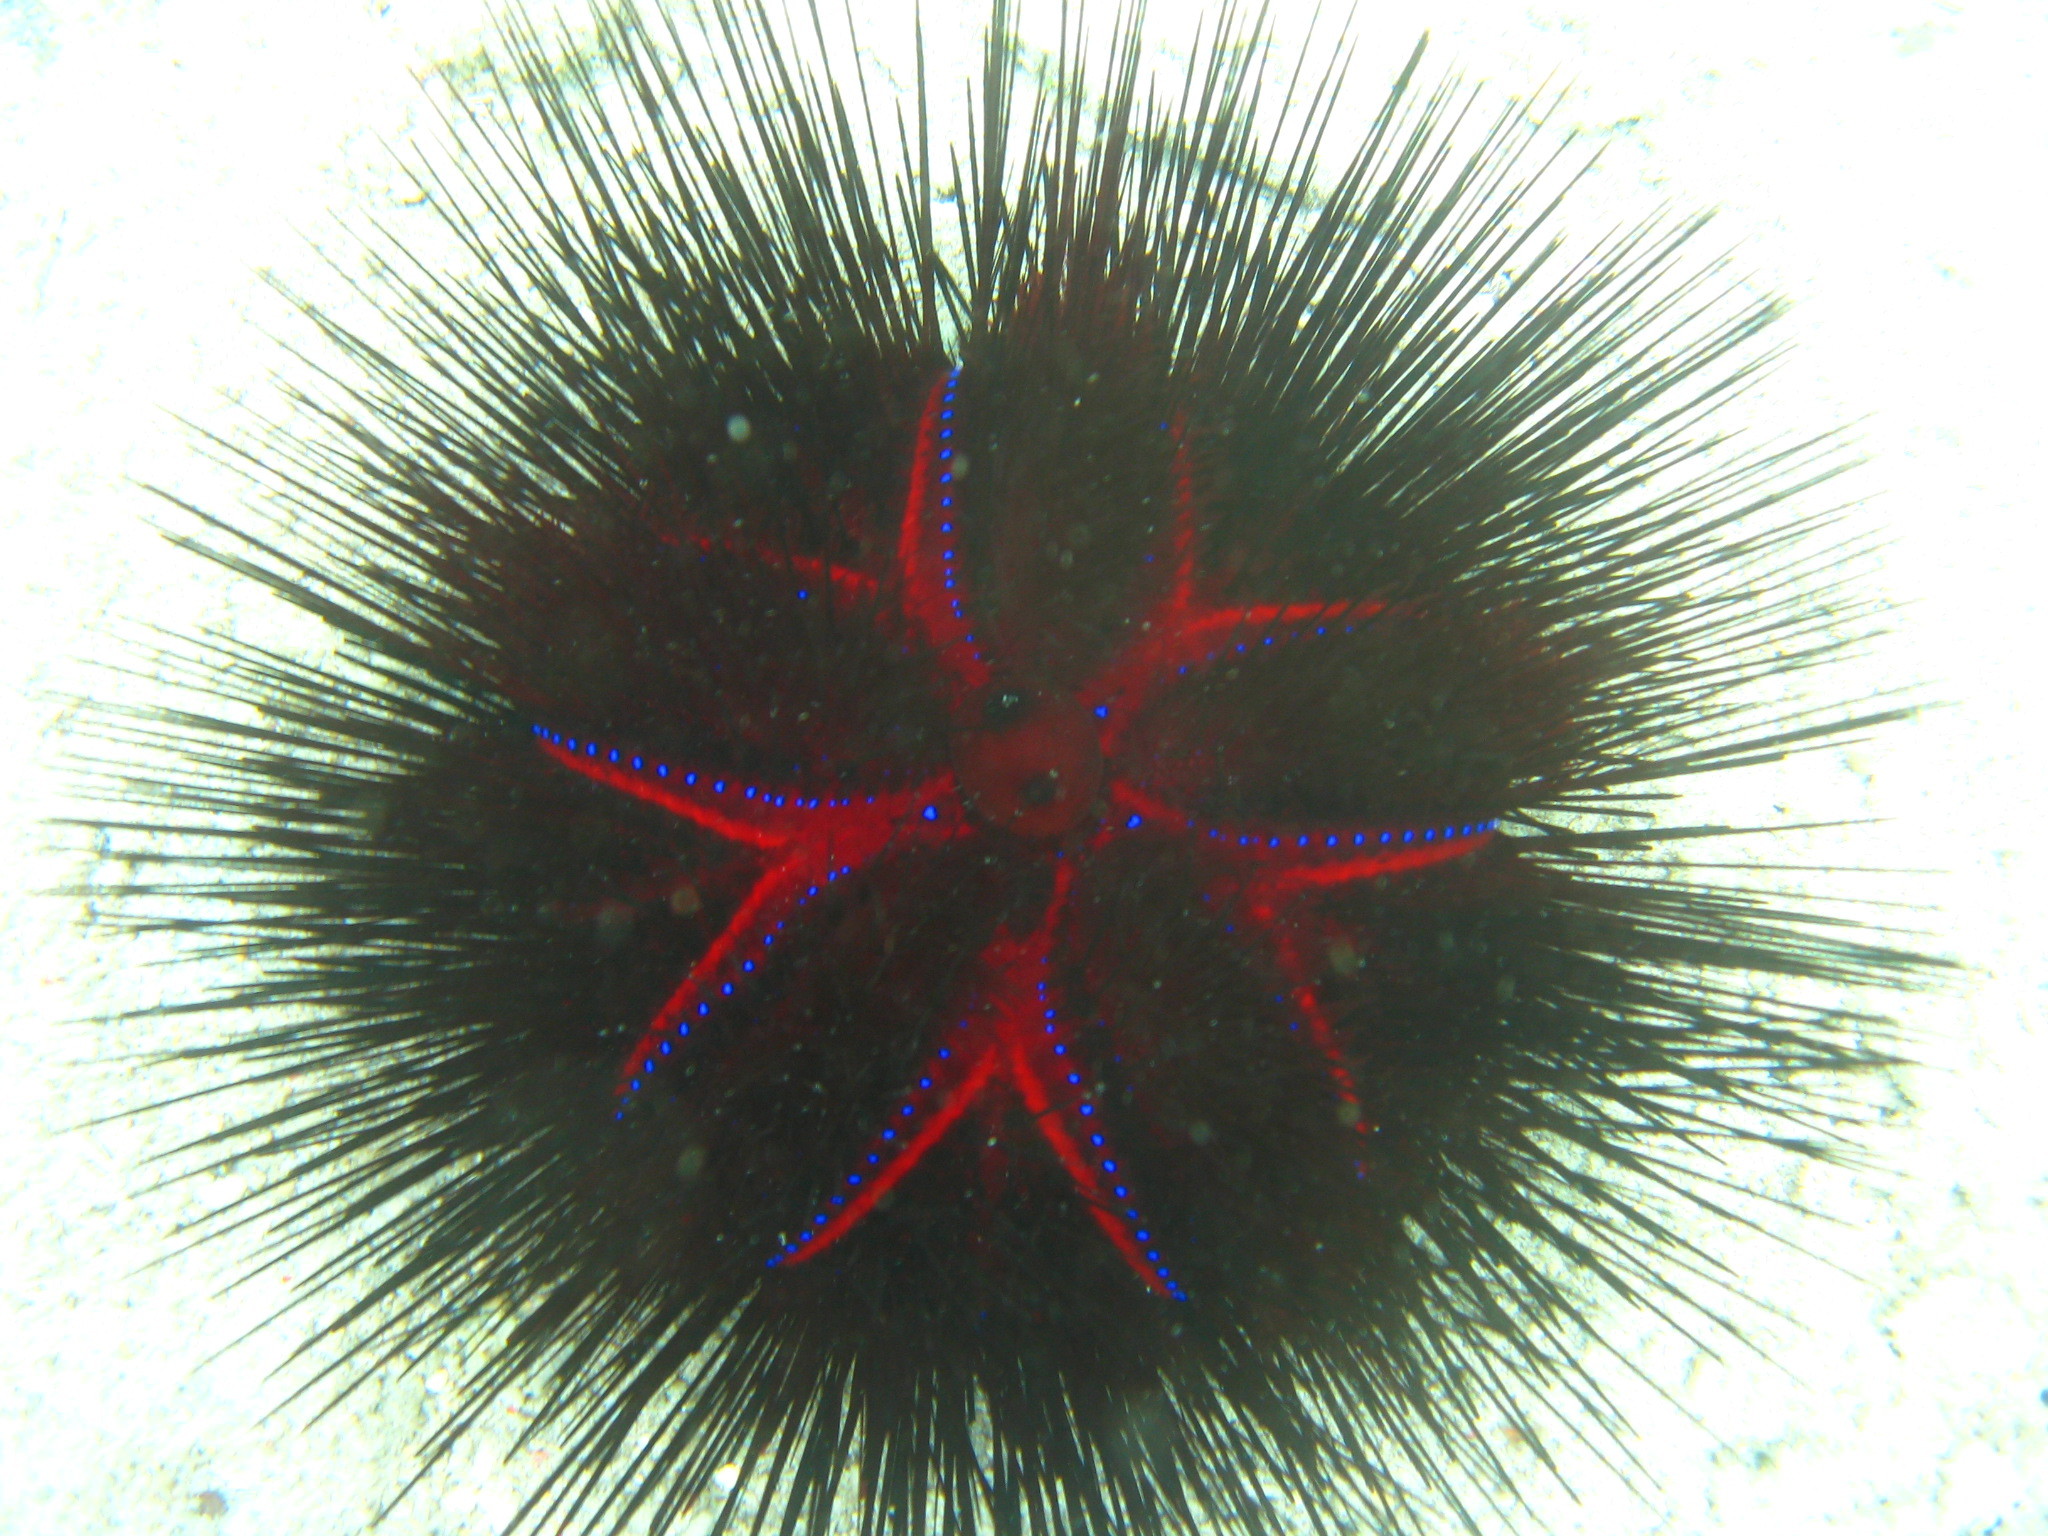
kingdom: Animalia
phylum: Echinodermata
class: Echinoidea
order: Diadematoida
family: Diadematidae
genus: Astropyga
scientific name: Astropyga radiata
